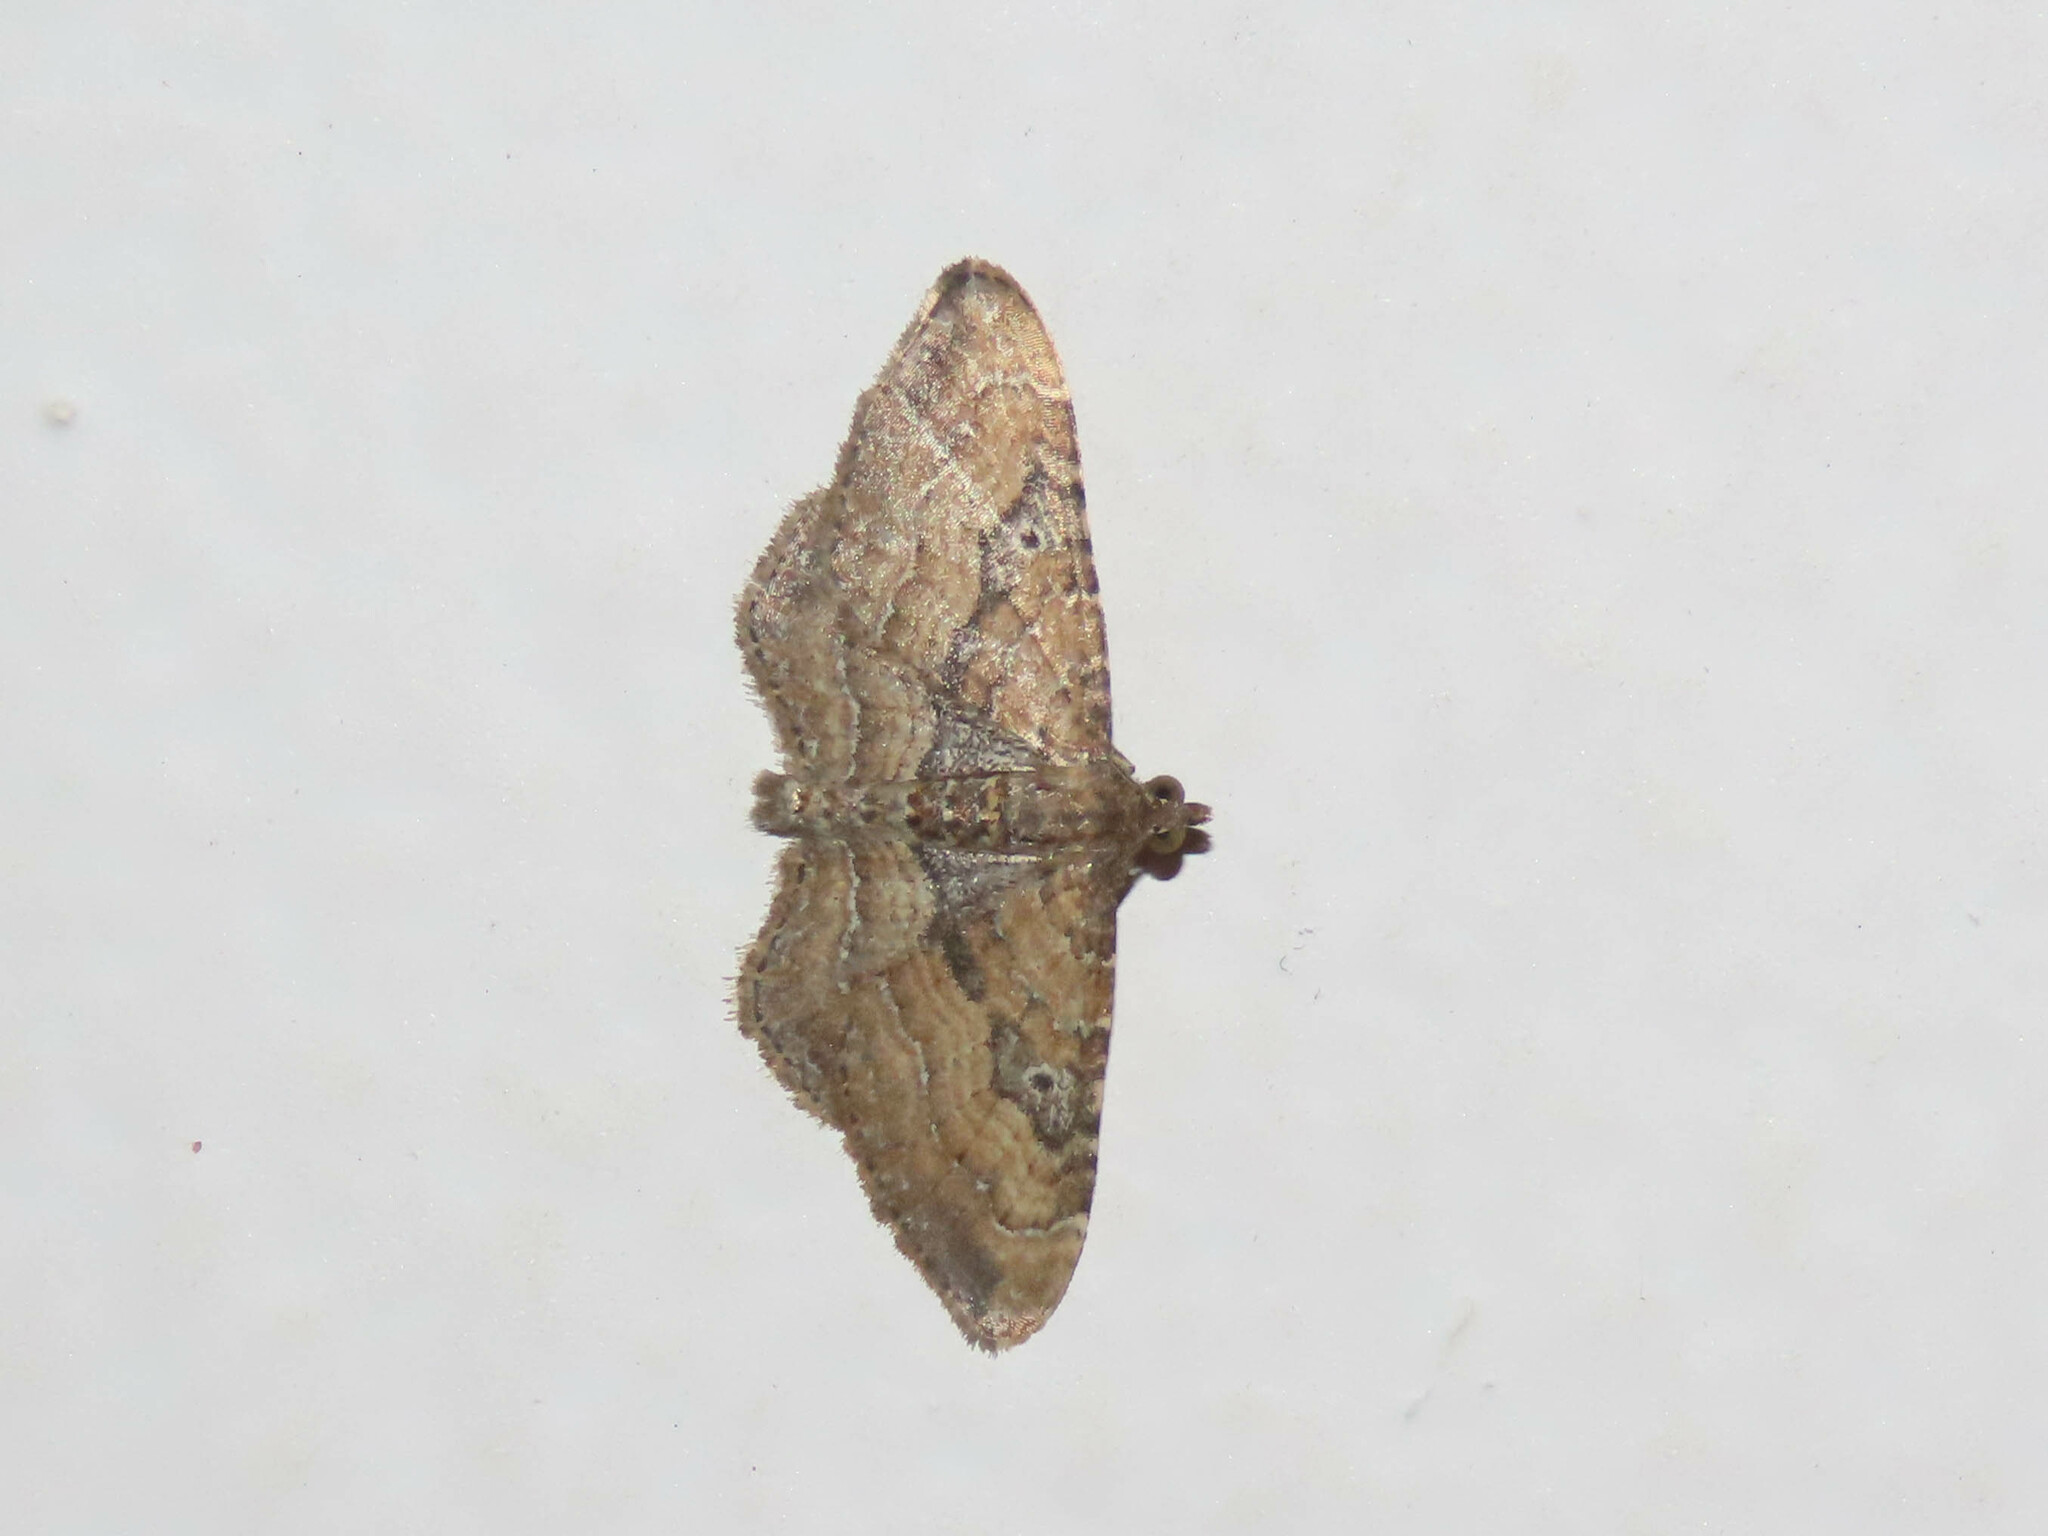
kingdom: Animalia
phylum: Arthropoda
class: Insecta
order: Lepidoptera
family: Geometridae
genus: Orthonama
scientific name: Orthonama obstipata
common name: The gem
